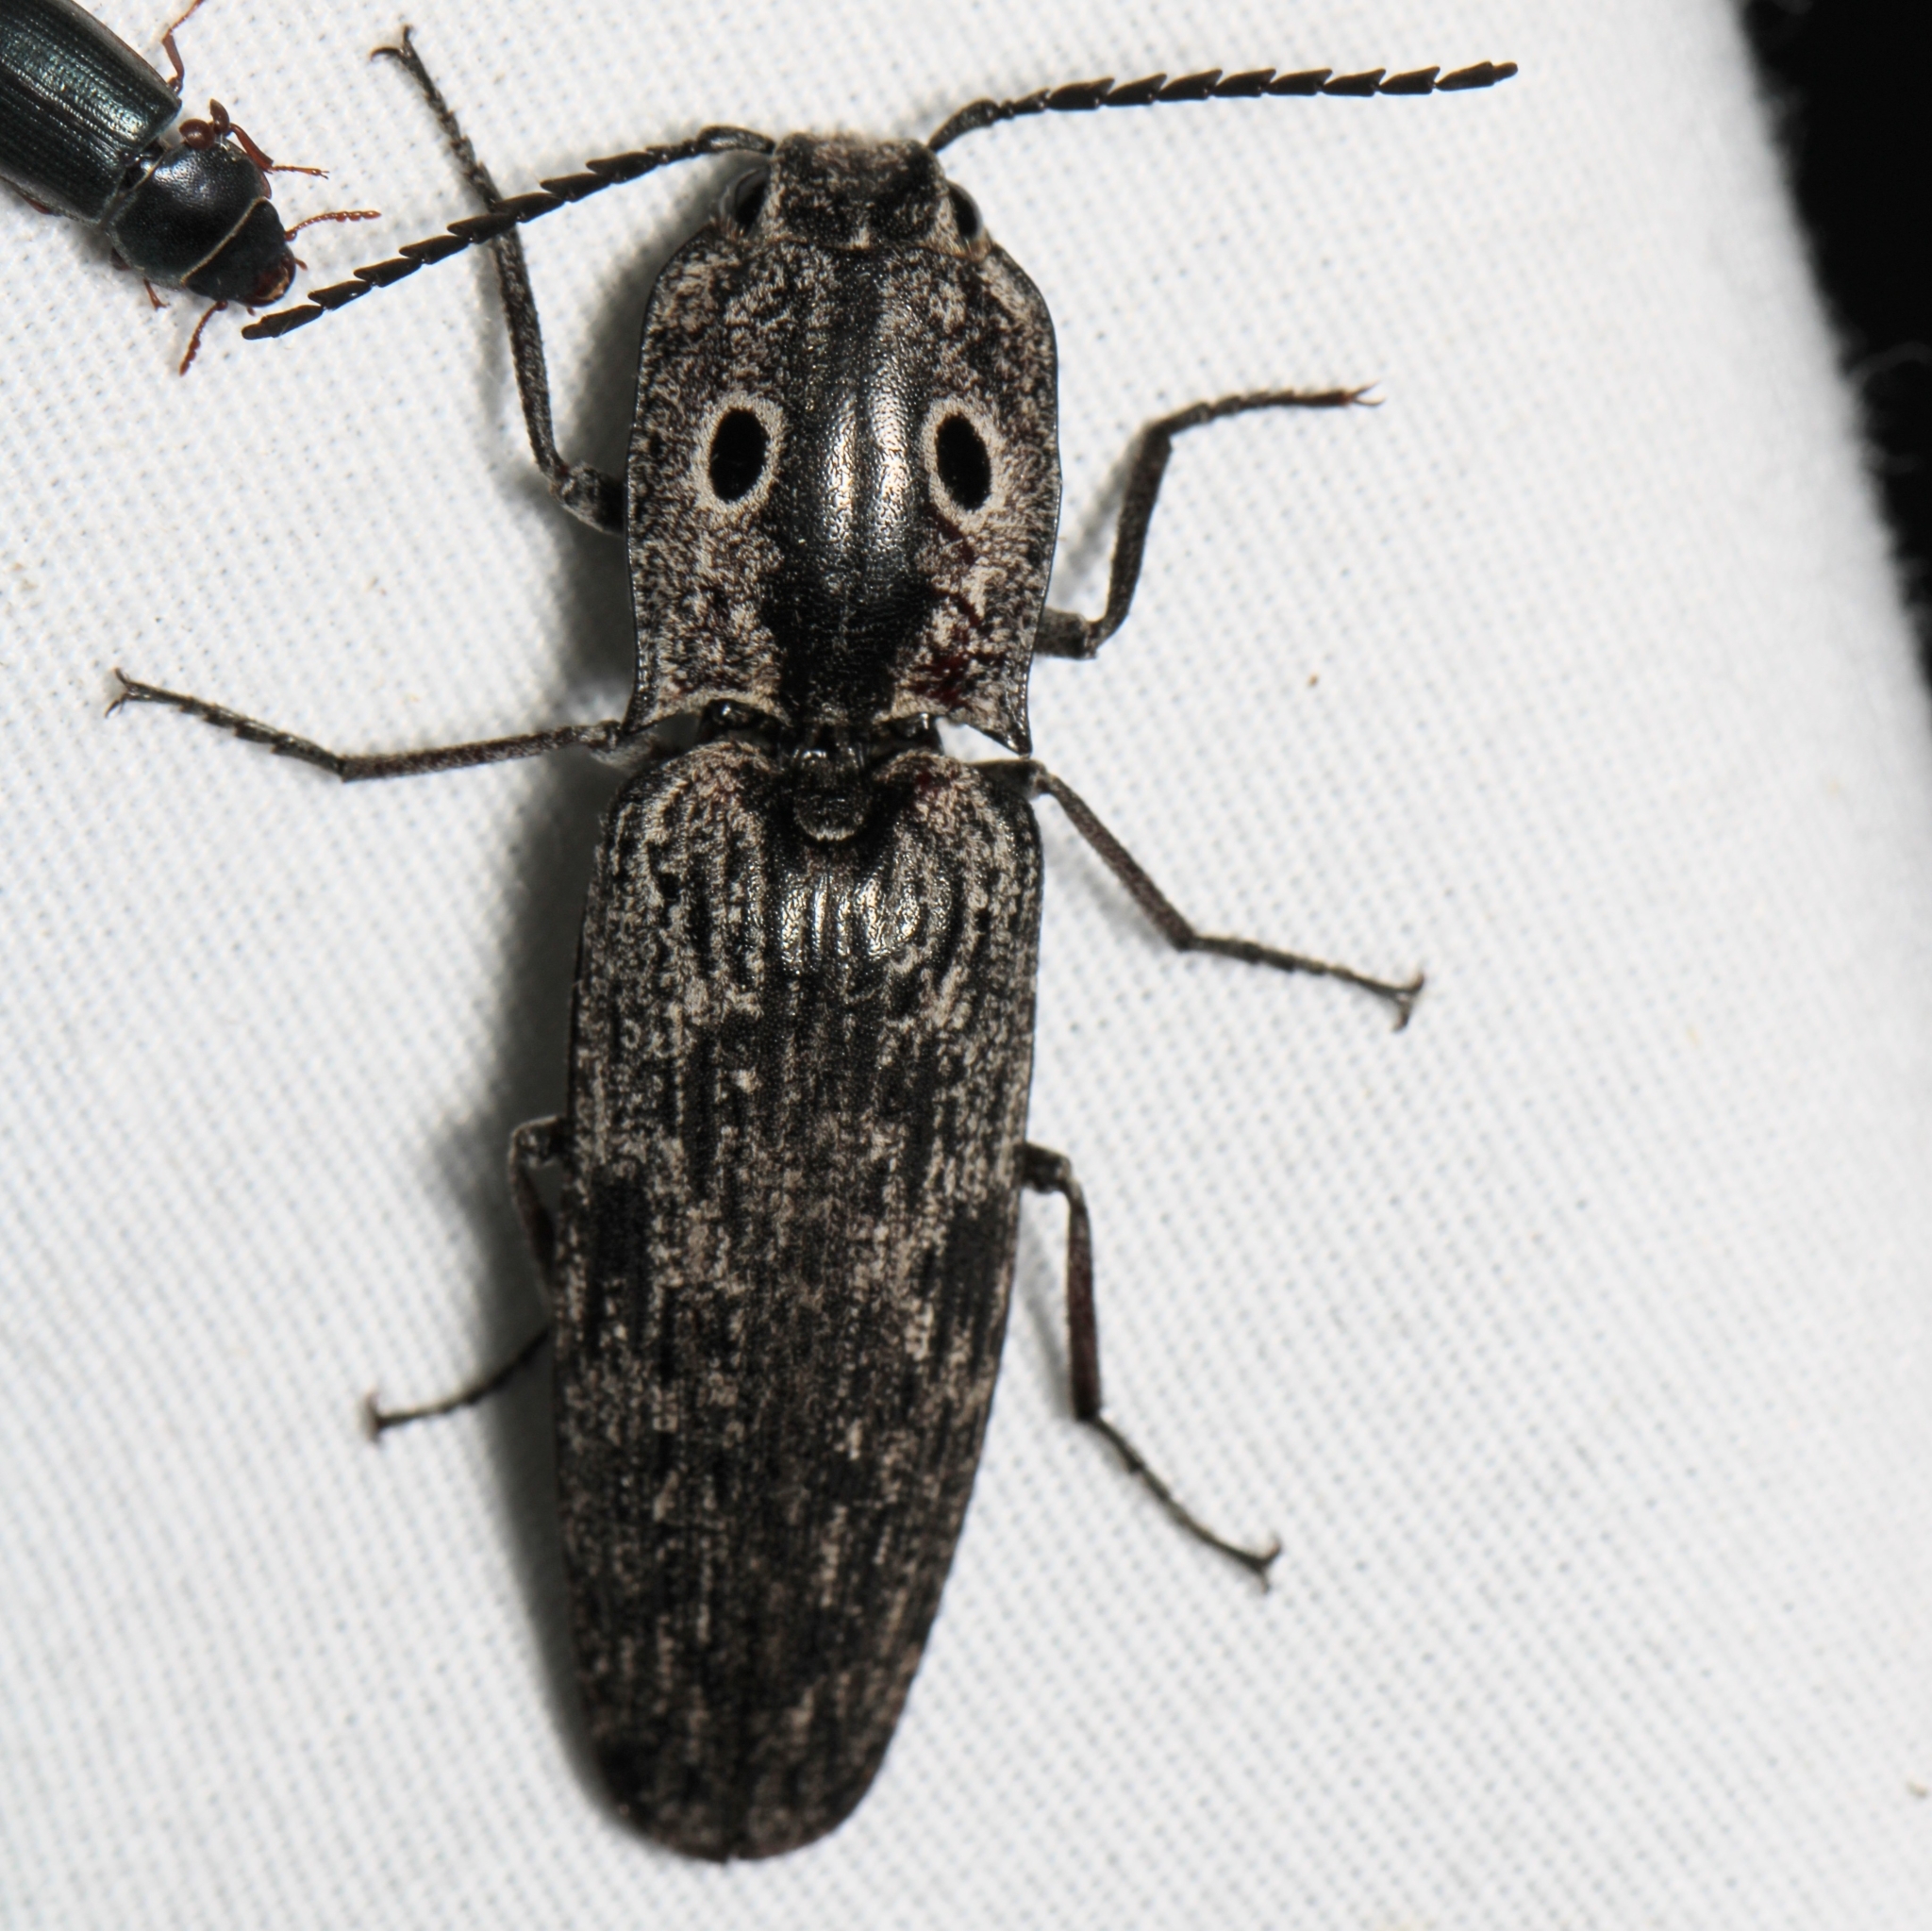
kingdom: Animalia
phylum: Arthropoda
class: Insecta
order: Coleoptera
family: Elateridae
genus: Alaus
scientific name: Alaus myops
